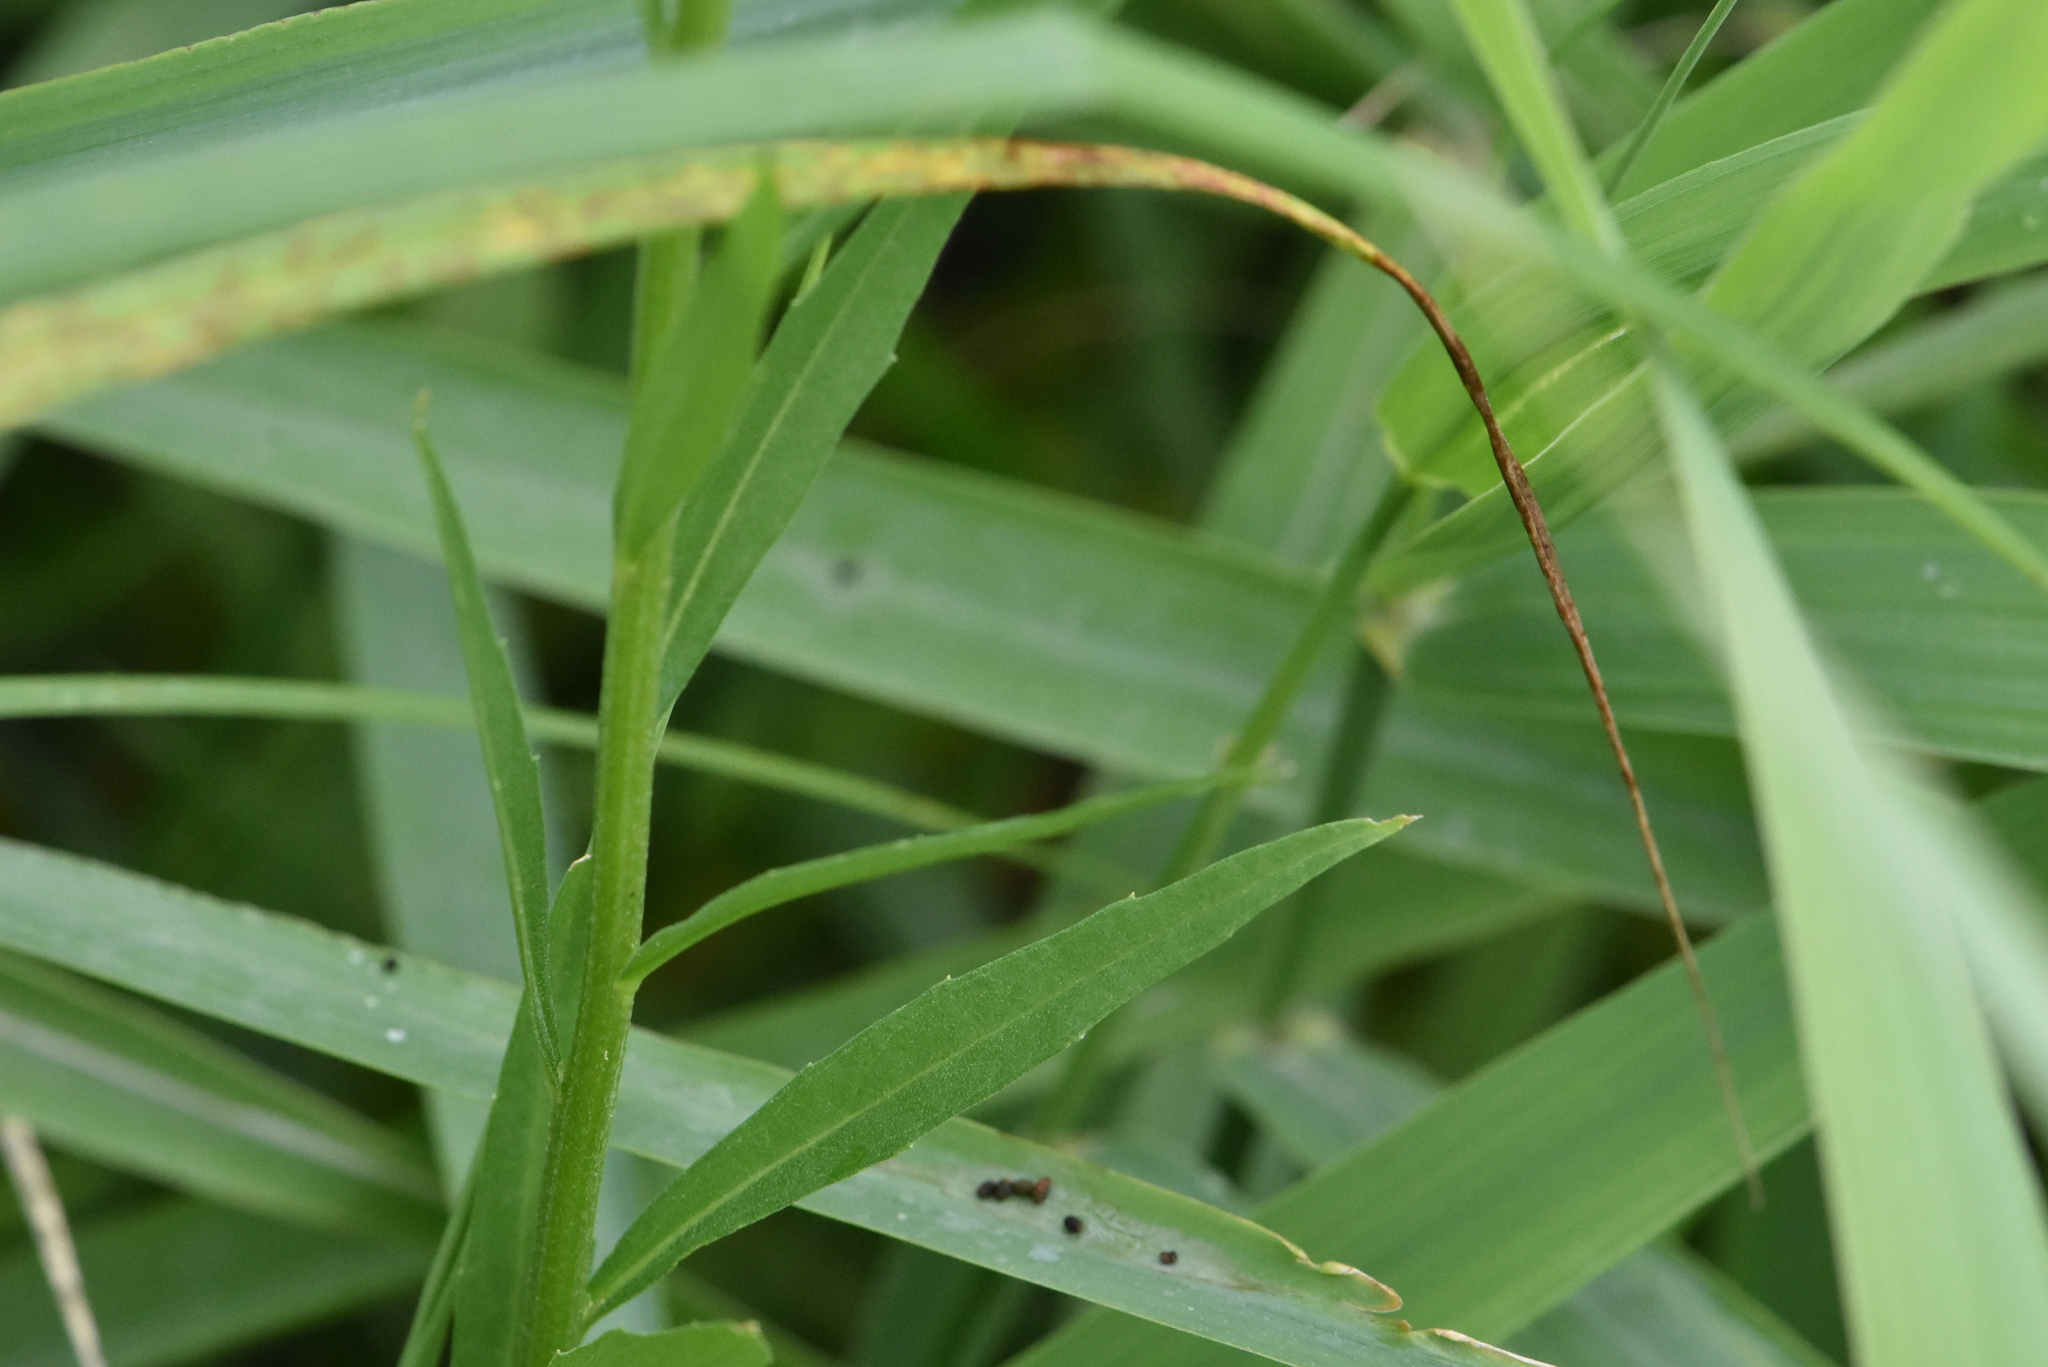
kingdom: Plantae
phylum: Tracheophyta
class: Magnoliopsida
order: Brassicales
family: Brassicaceae
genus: Erysimum
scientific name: Erysimum cheiranthoides
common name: Treacle mustard
